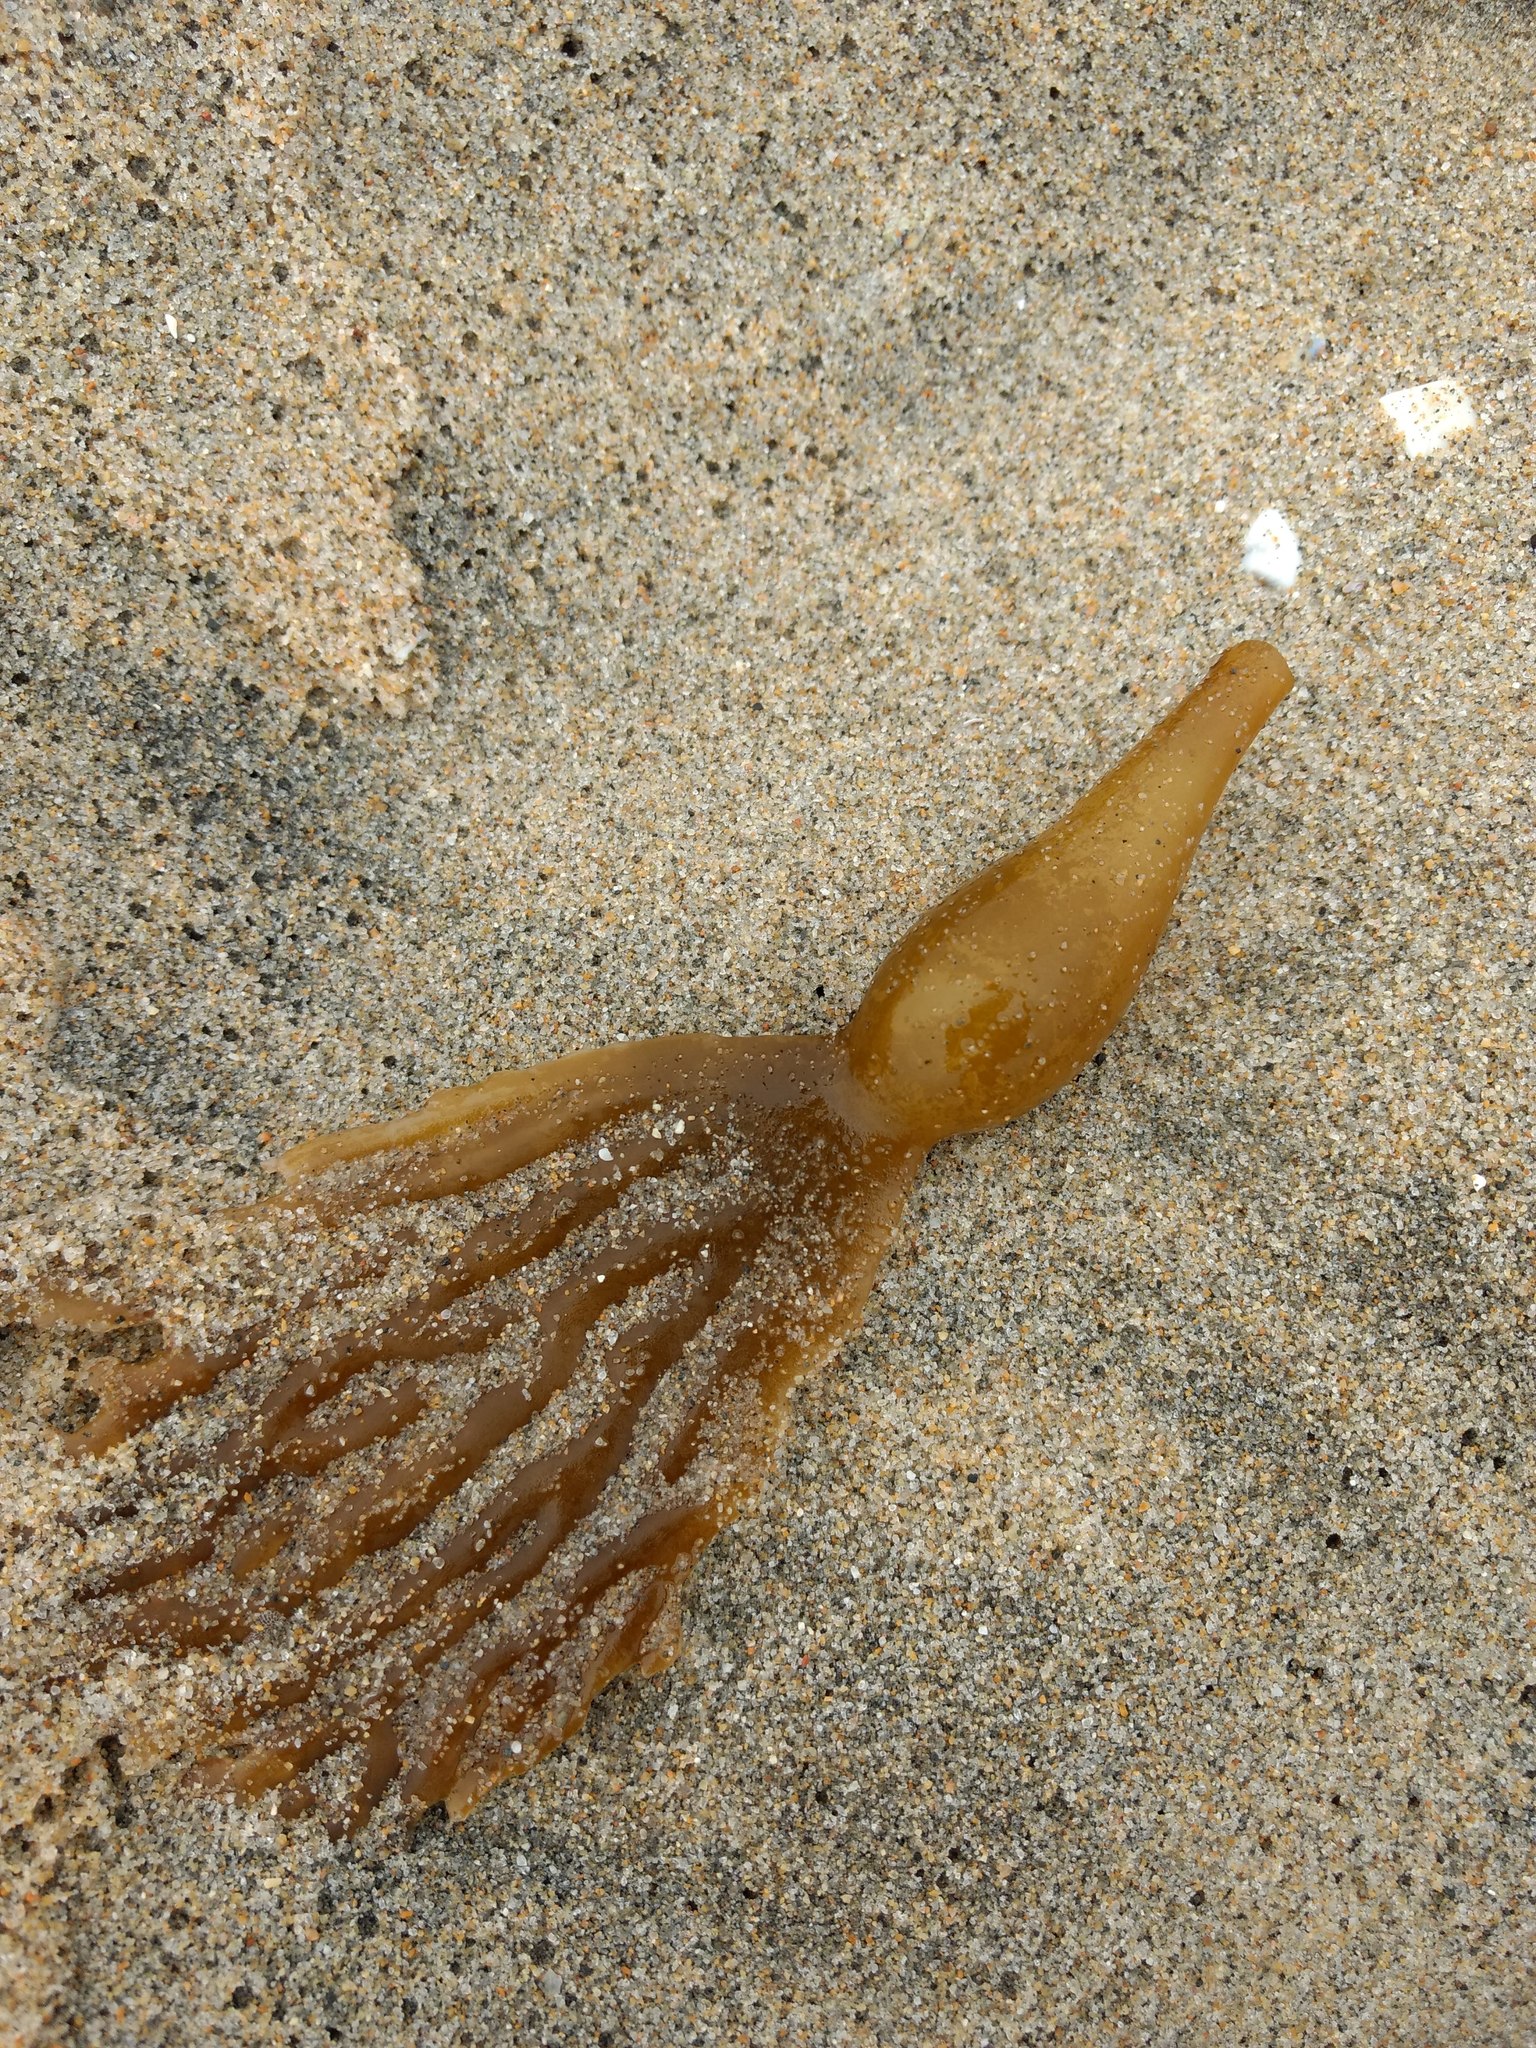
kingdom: Chromista
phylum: Ochrophyta
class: Phaeophyceae
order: Laminariales
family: Laminariaceae
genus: Macrocystis
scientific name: Macrocystis pyrifera
